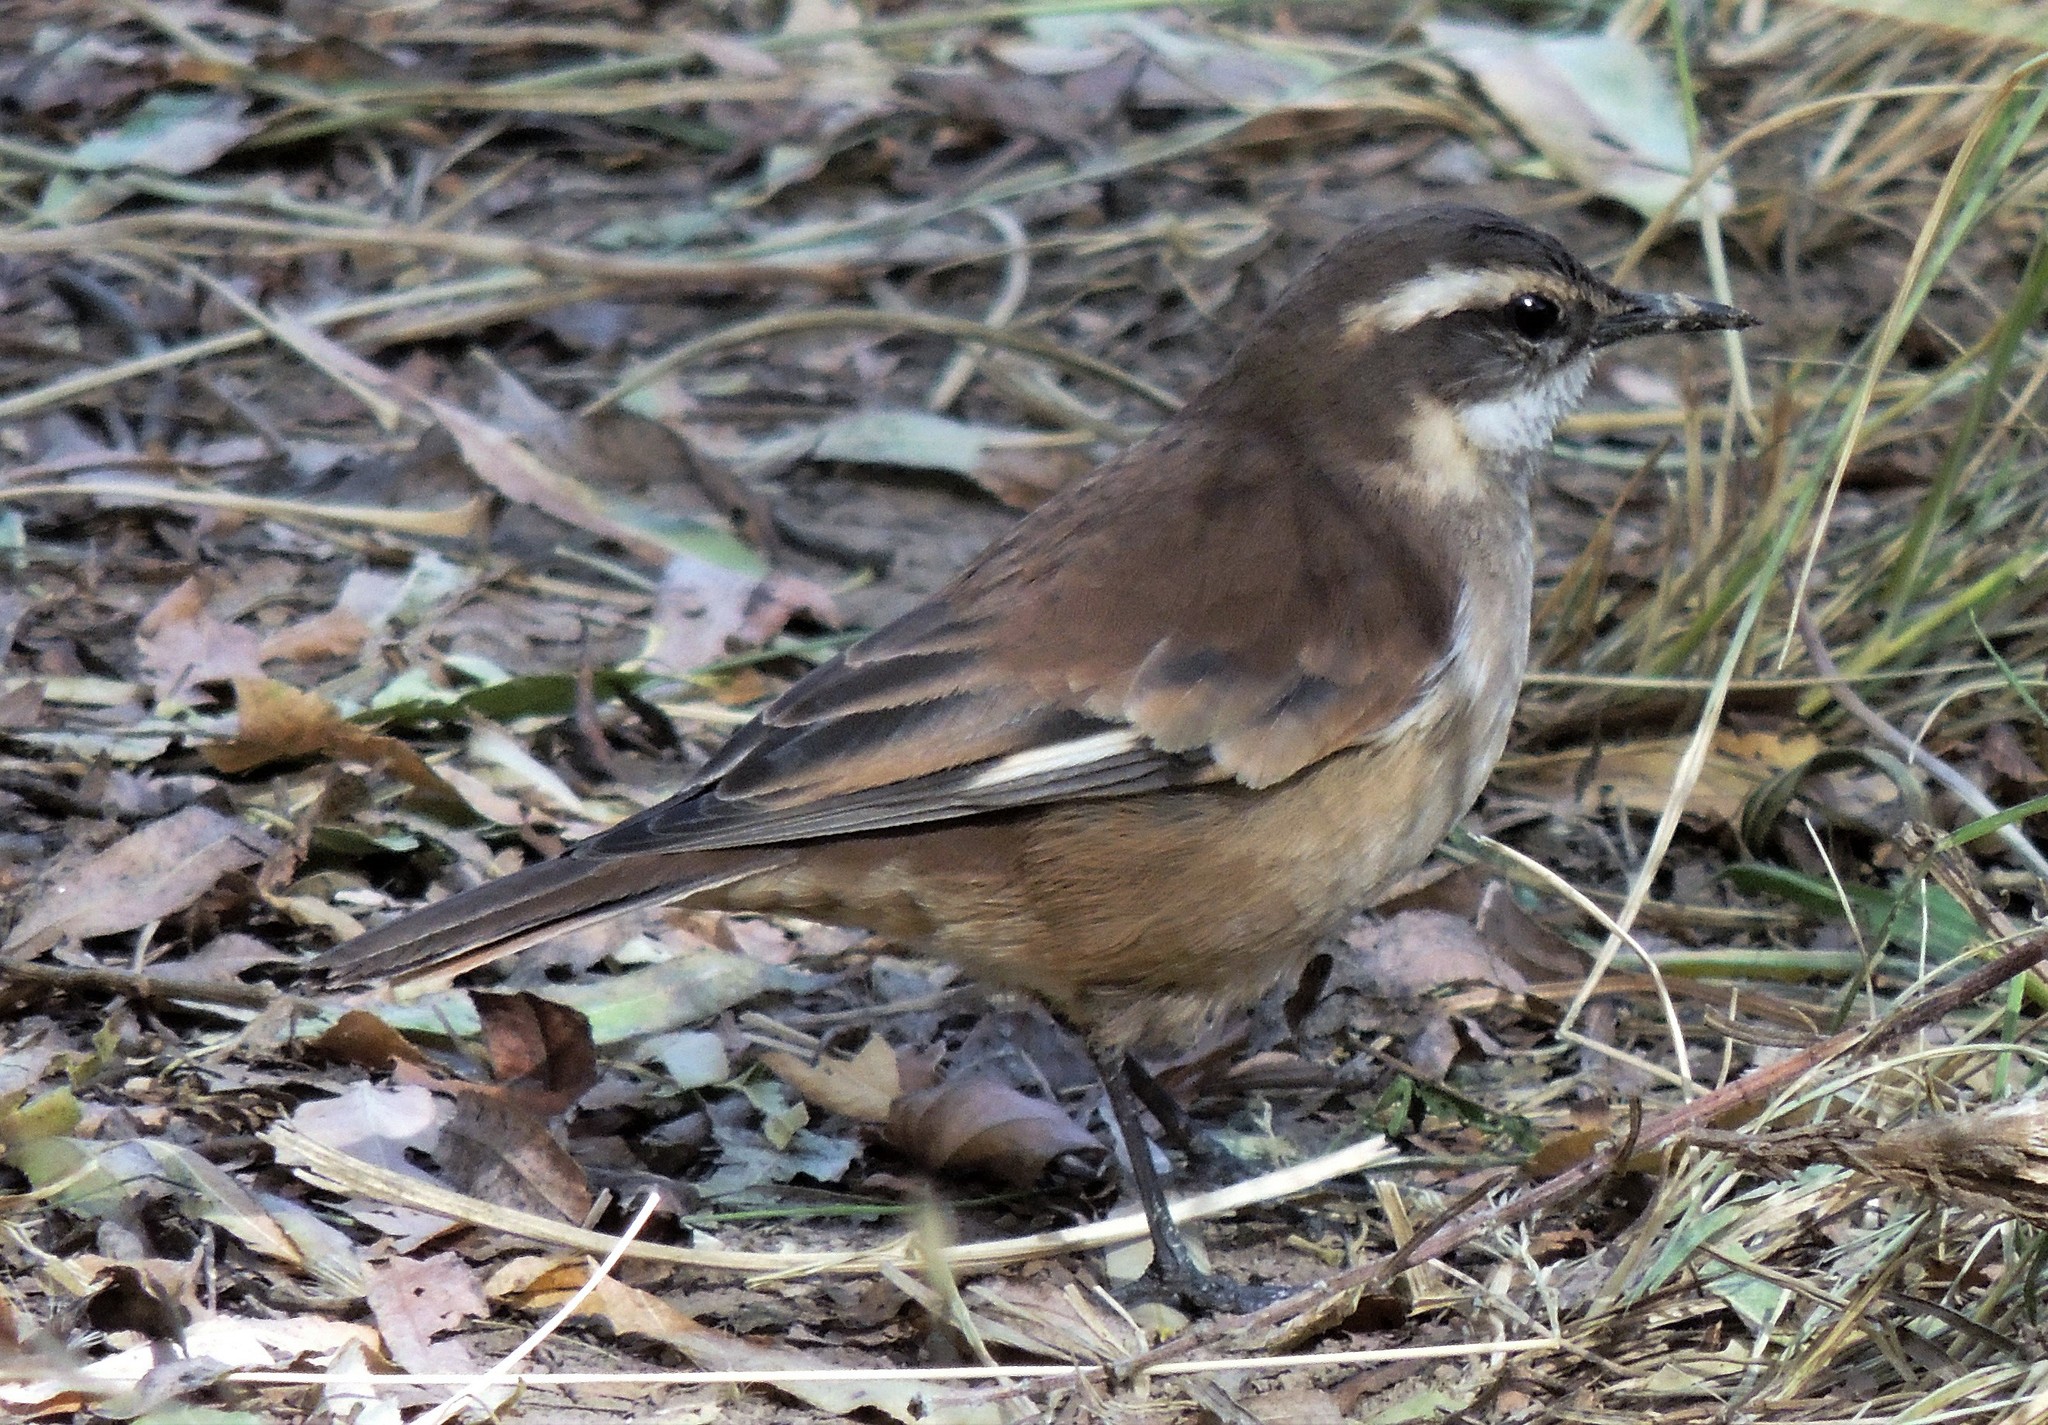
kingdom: Animalia
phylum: Chordata
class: Aves
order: Passeriformes
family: Furnariidae
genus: Cinclodes
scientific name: Cinclodes fuscus
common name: Buff-winged cinclodes
